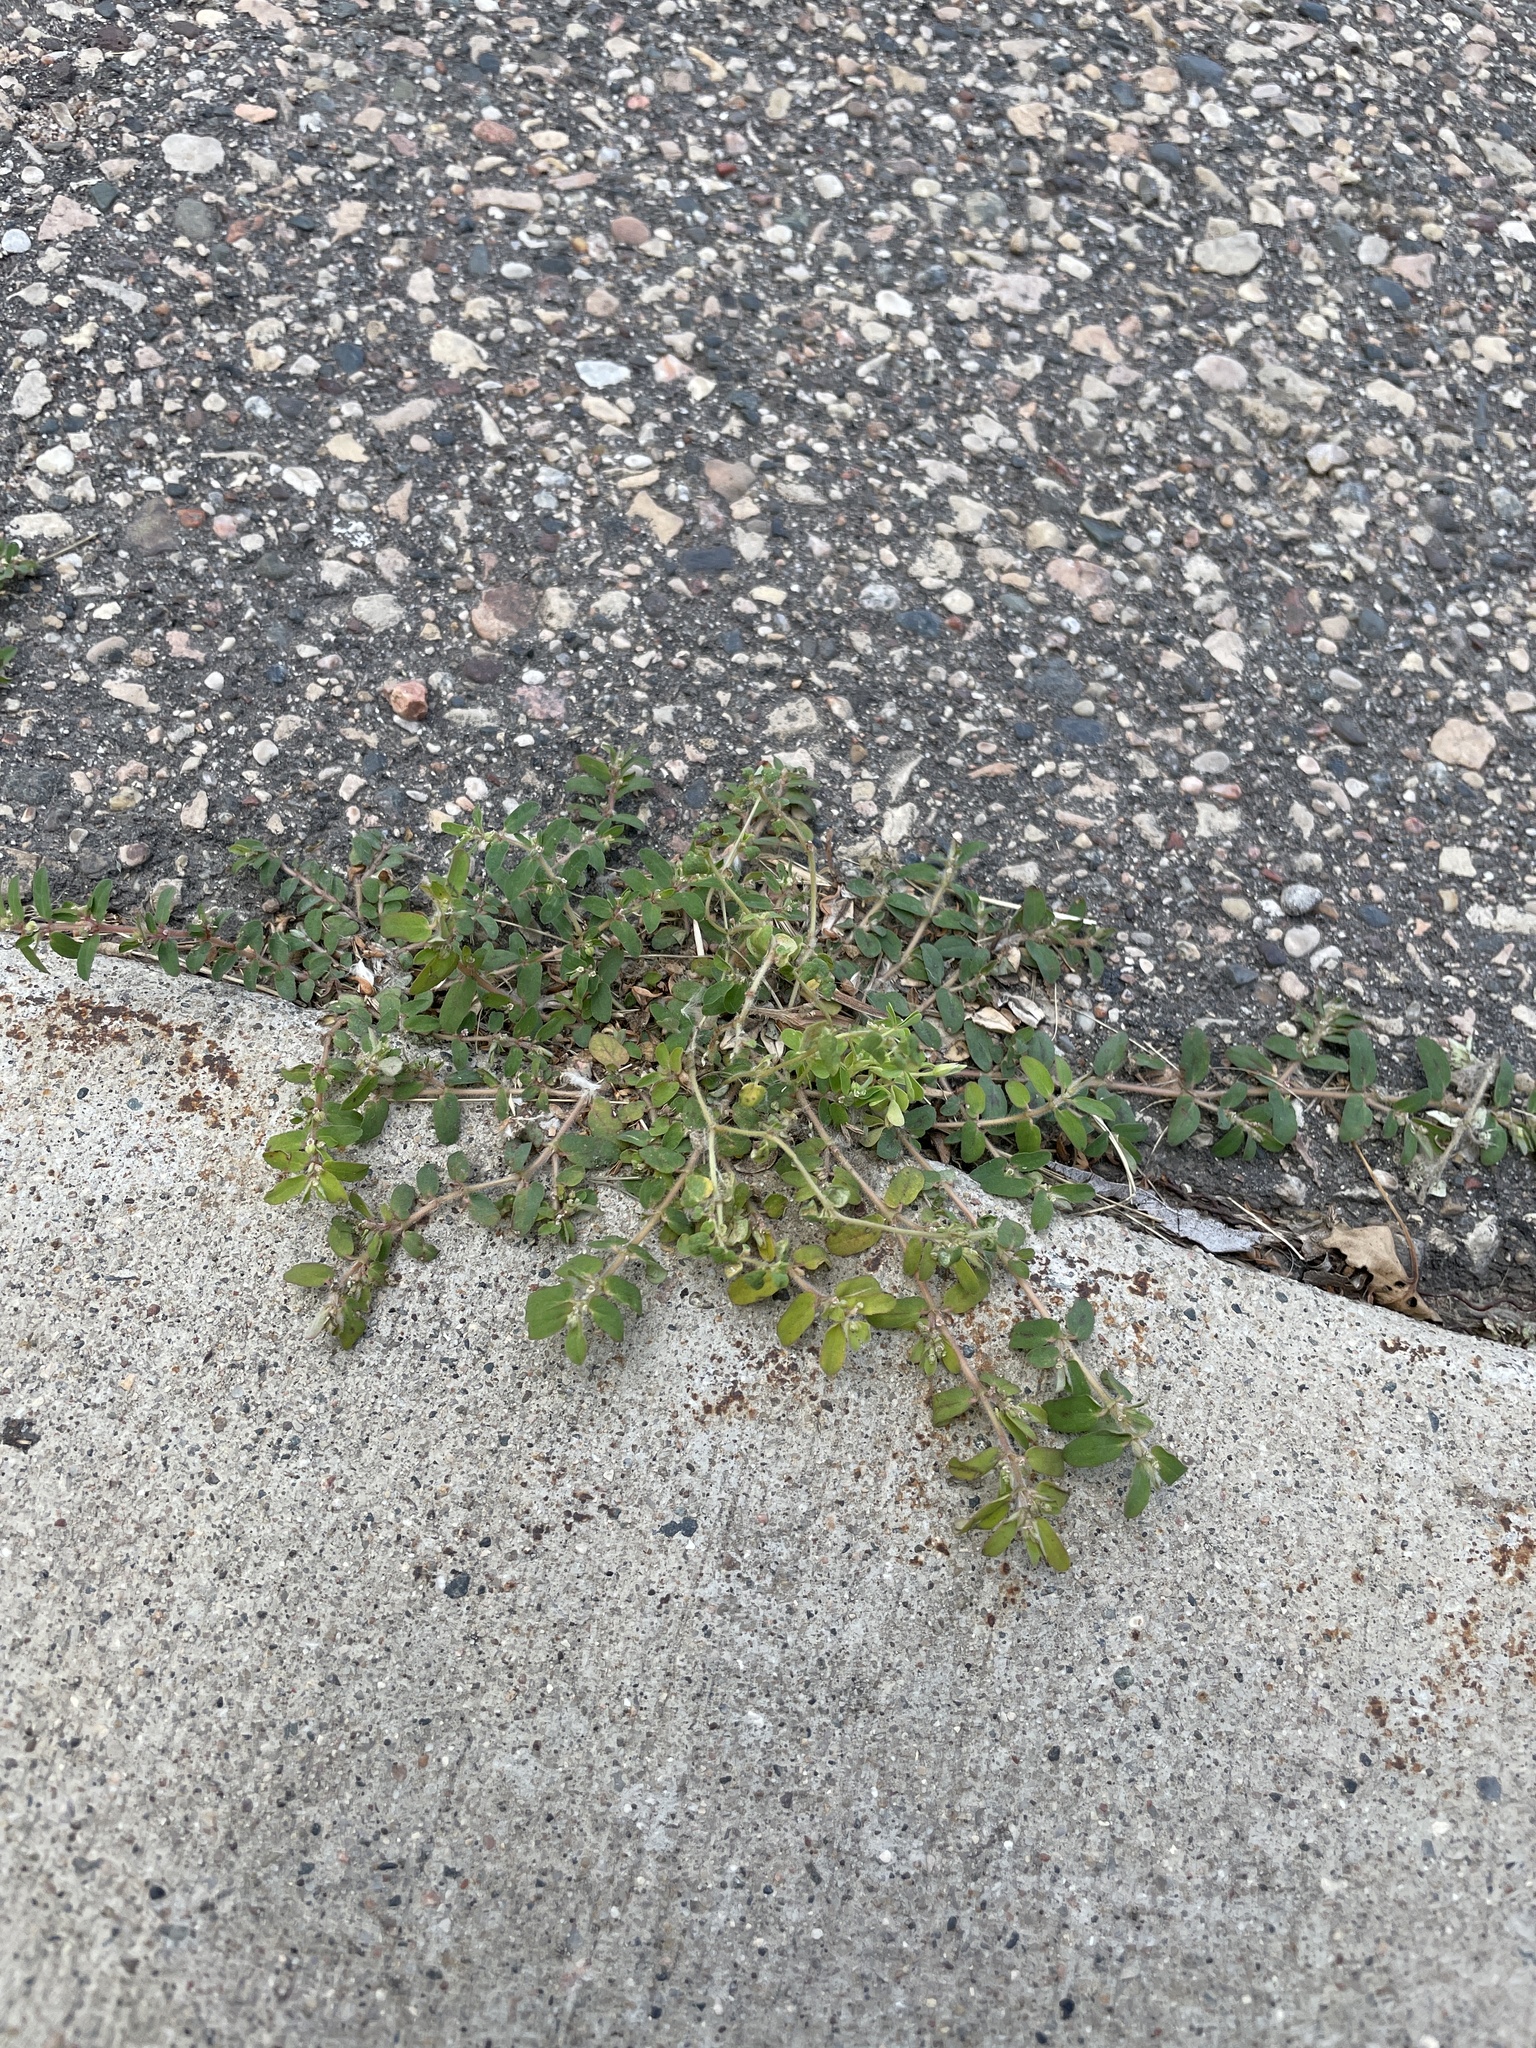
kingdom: Plantae
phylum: Tracheophyta
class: Magnoliopsida
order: Malpighiales
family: Euphorbiaceae
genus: Euphorbia
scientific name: Euphorbia maculata
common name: Spotted spurge
